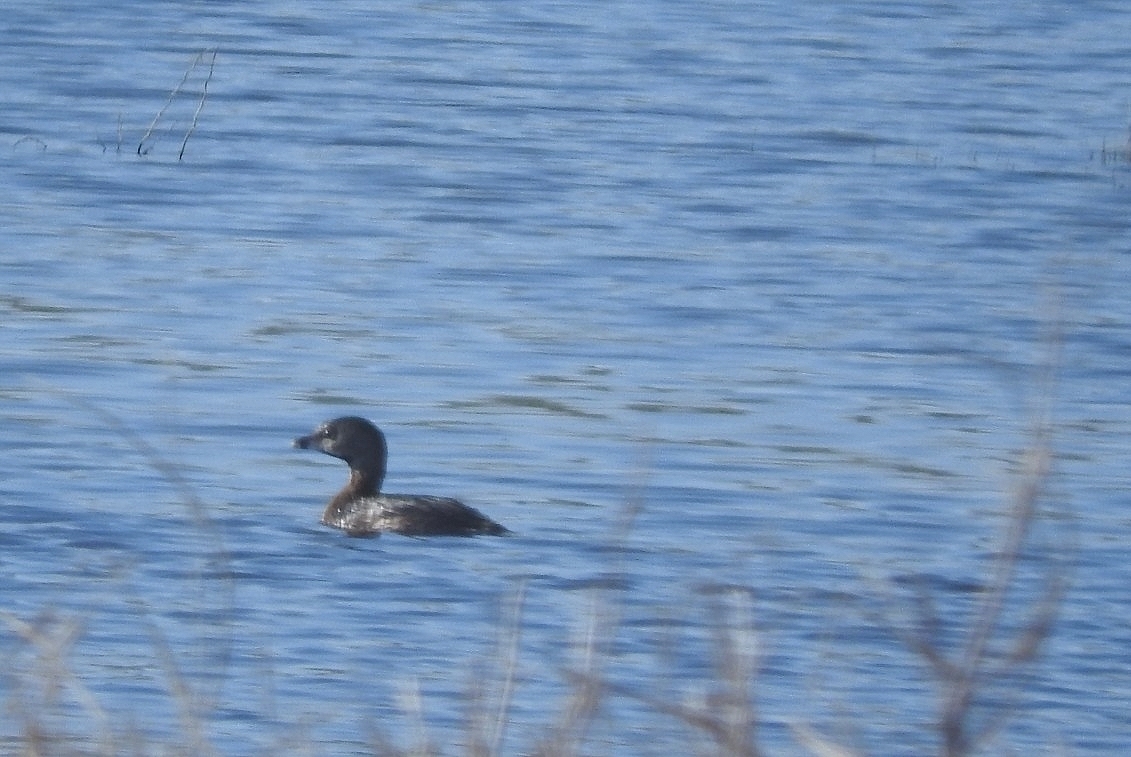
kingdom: Animalia
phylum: Chordata
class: Aves
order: Podicipediformes
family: Podicipedidae
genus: Podilymbus
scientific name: Podilymbus podiceps
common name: Pied-billed grebe
